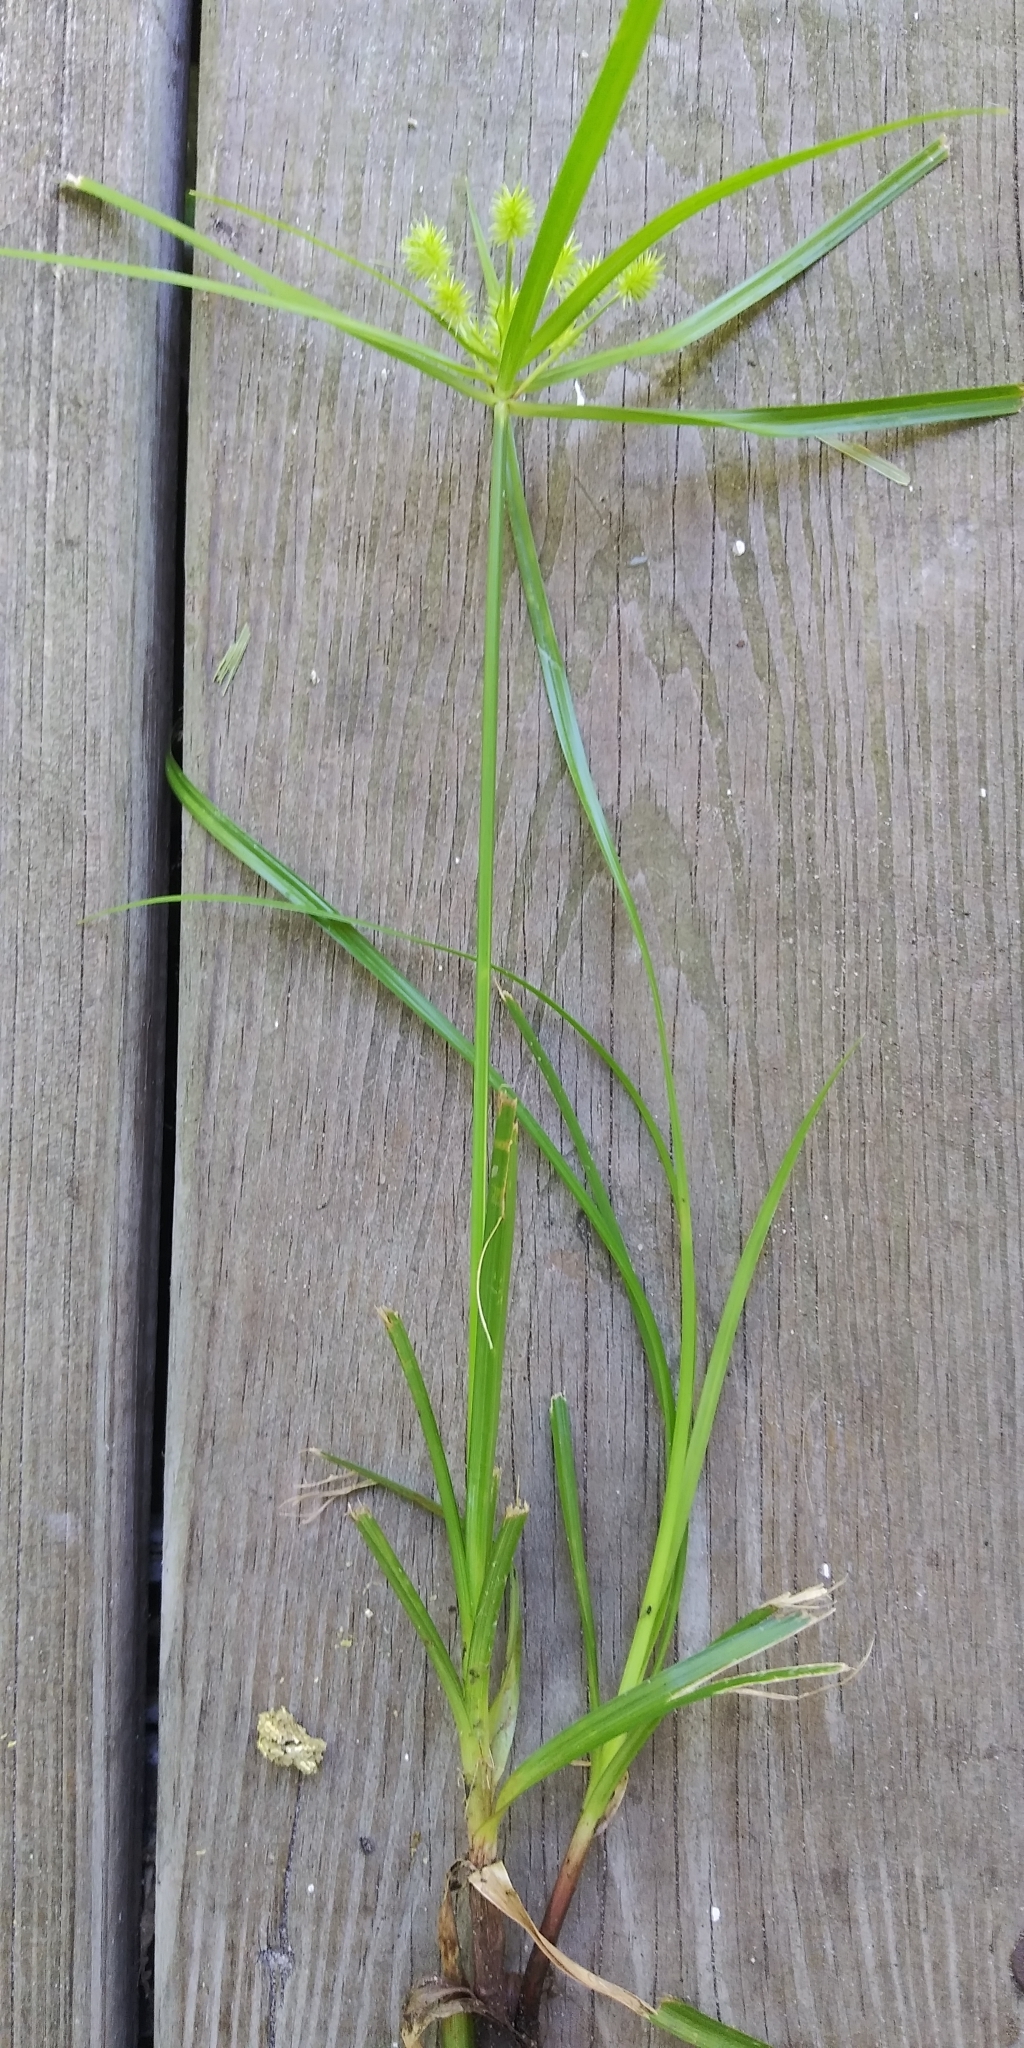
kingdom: Plantae
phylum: Tracheophyta
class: Liliopsida
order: Poales
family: Cyperaceae
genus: Cyperus
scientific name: Cyperus croceus
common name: Baldwin's flatsedge
